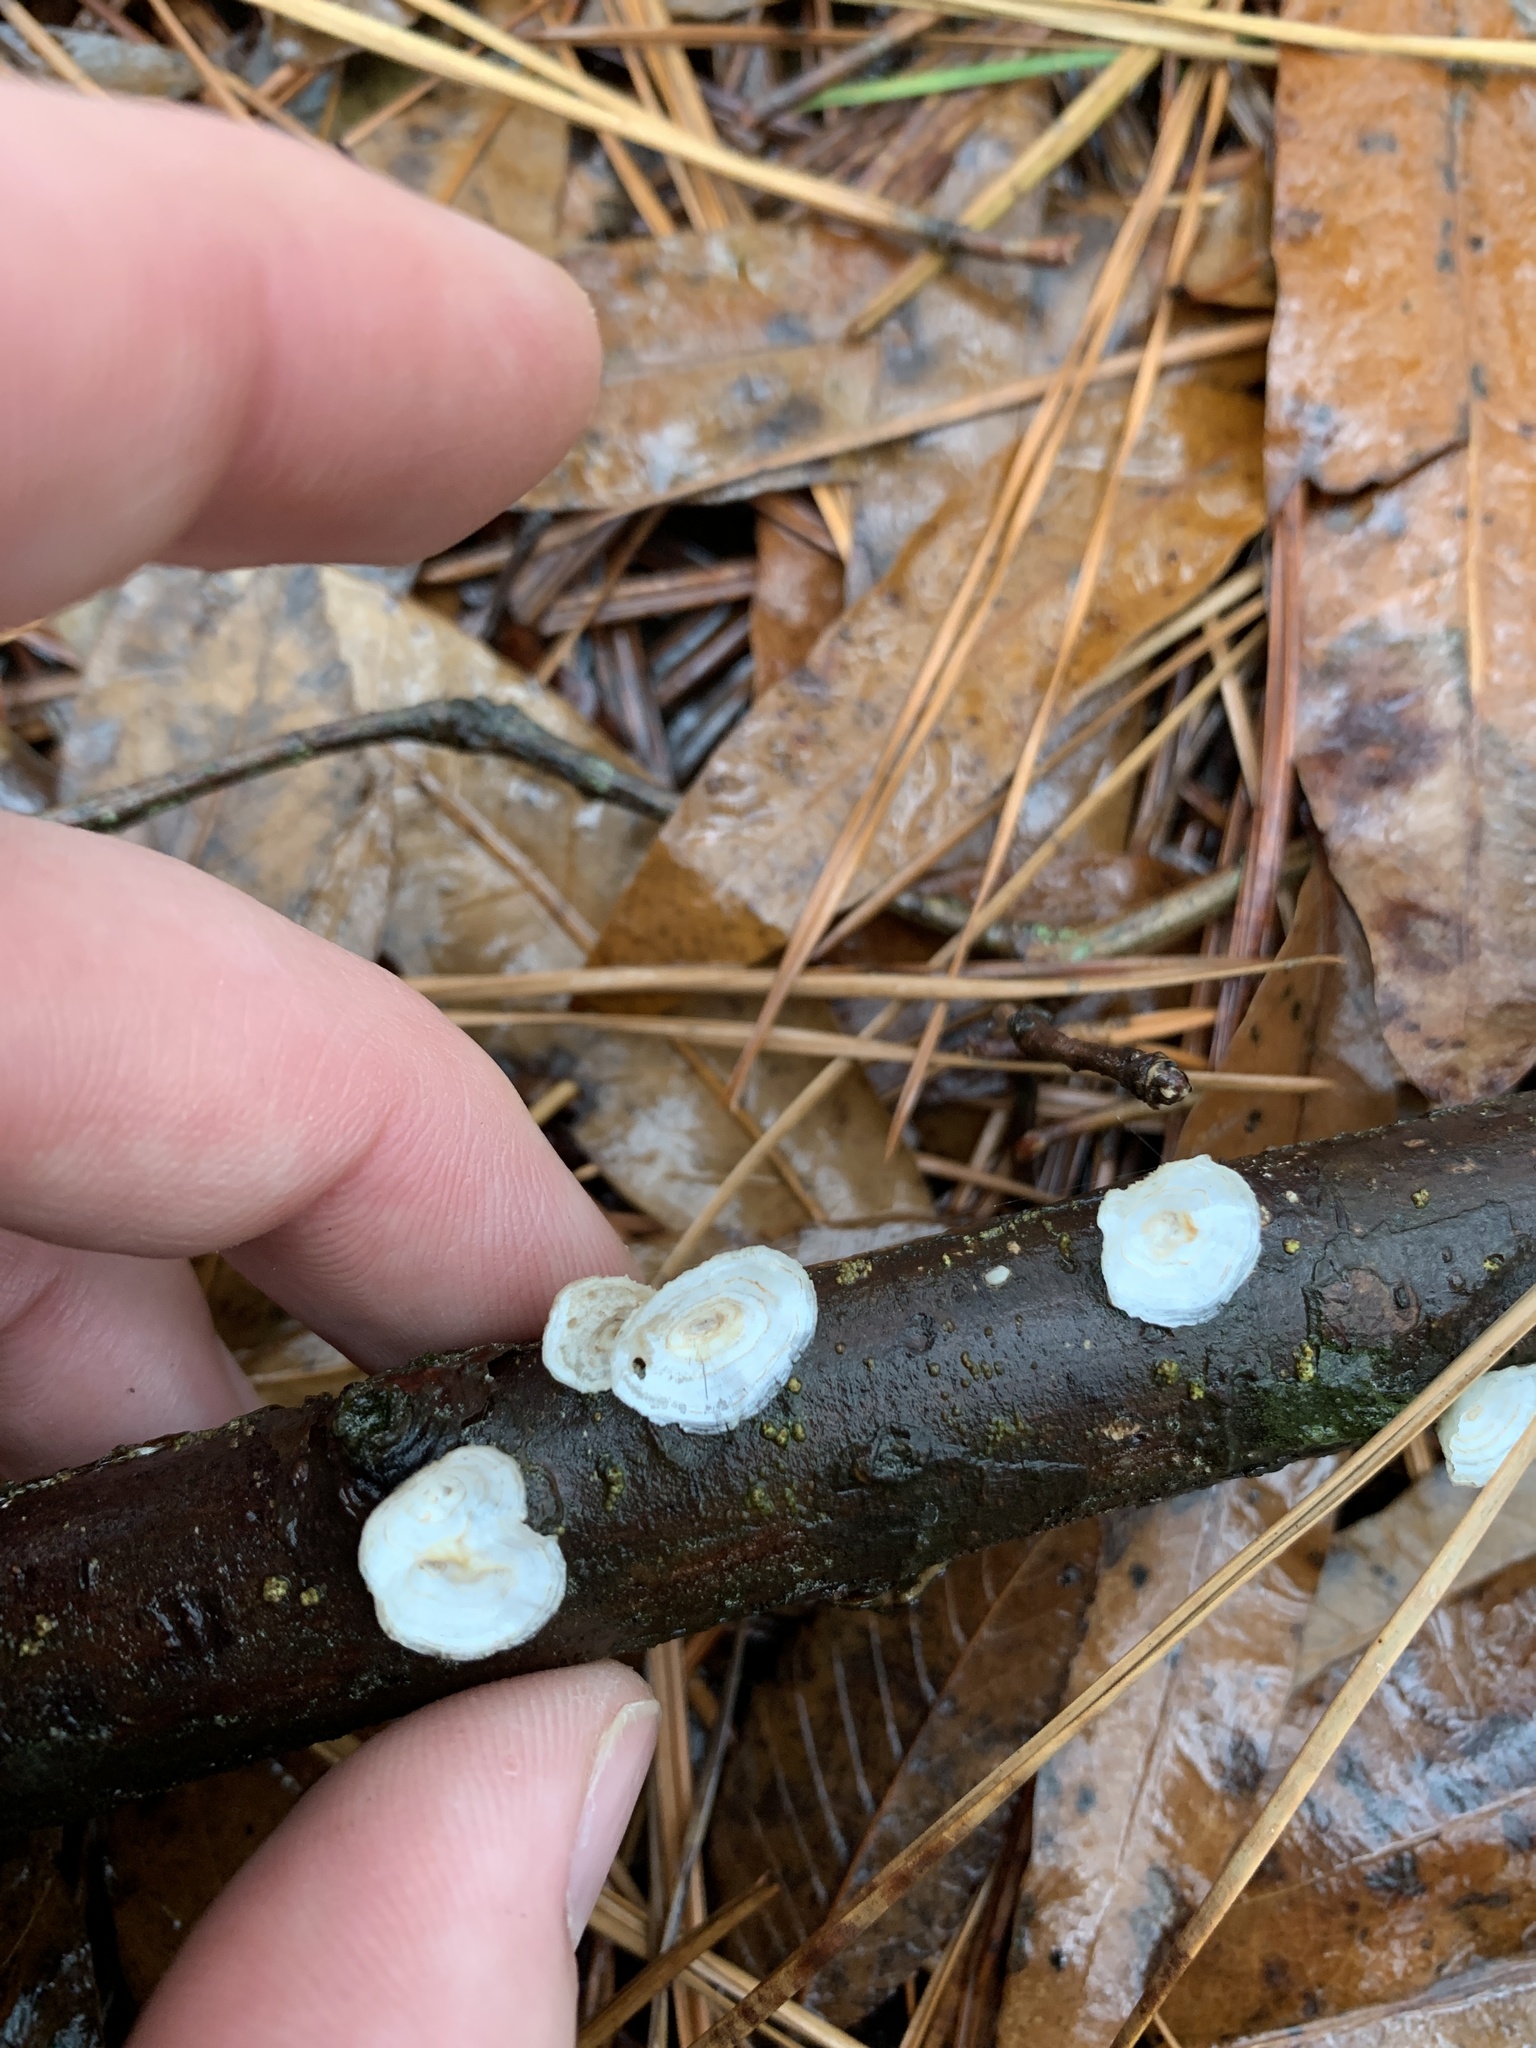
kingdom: Fungi
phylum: Basidiomycota
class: Agaricomycetes
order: Polyporales
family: Polyporaceae
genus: Poronidulus
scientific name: Poronidulus conchifer
